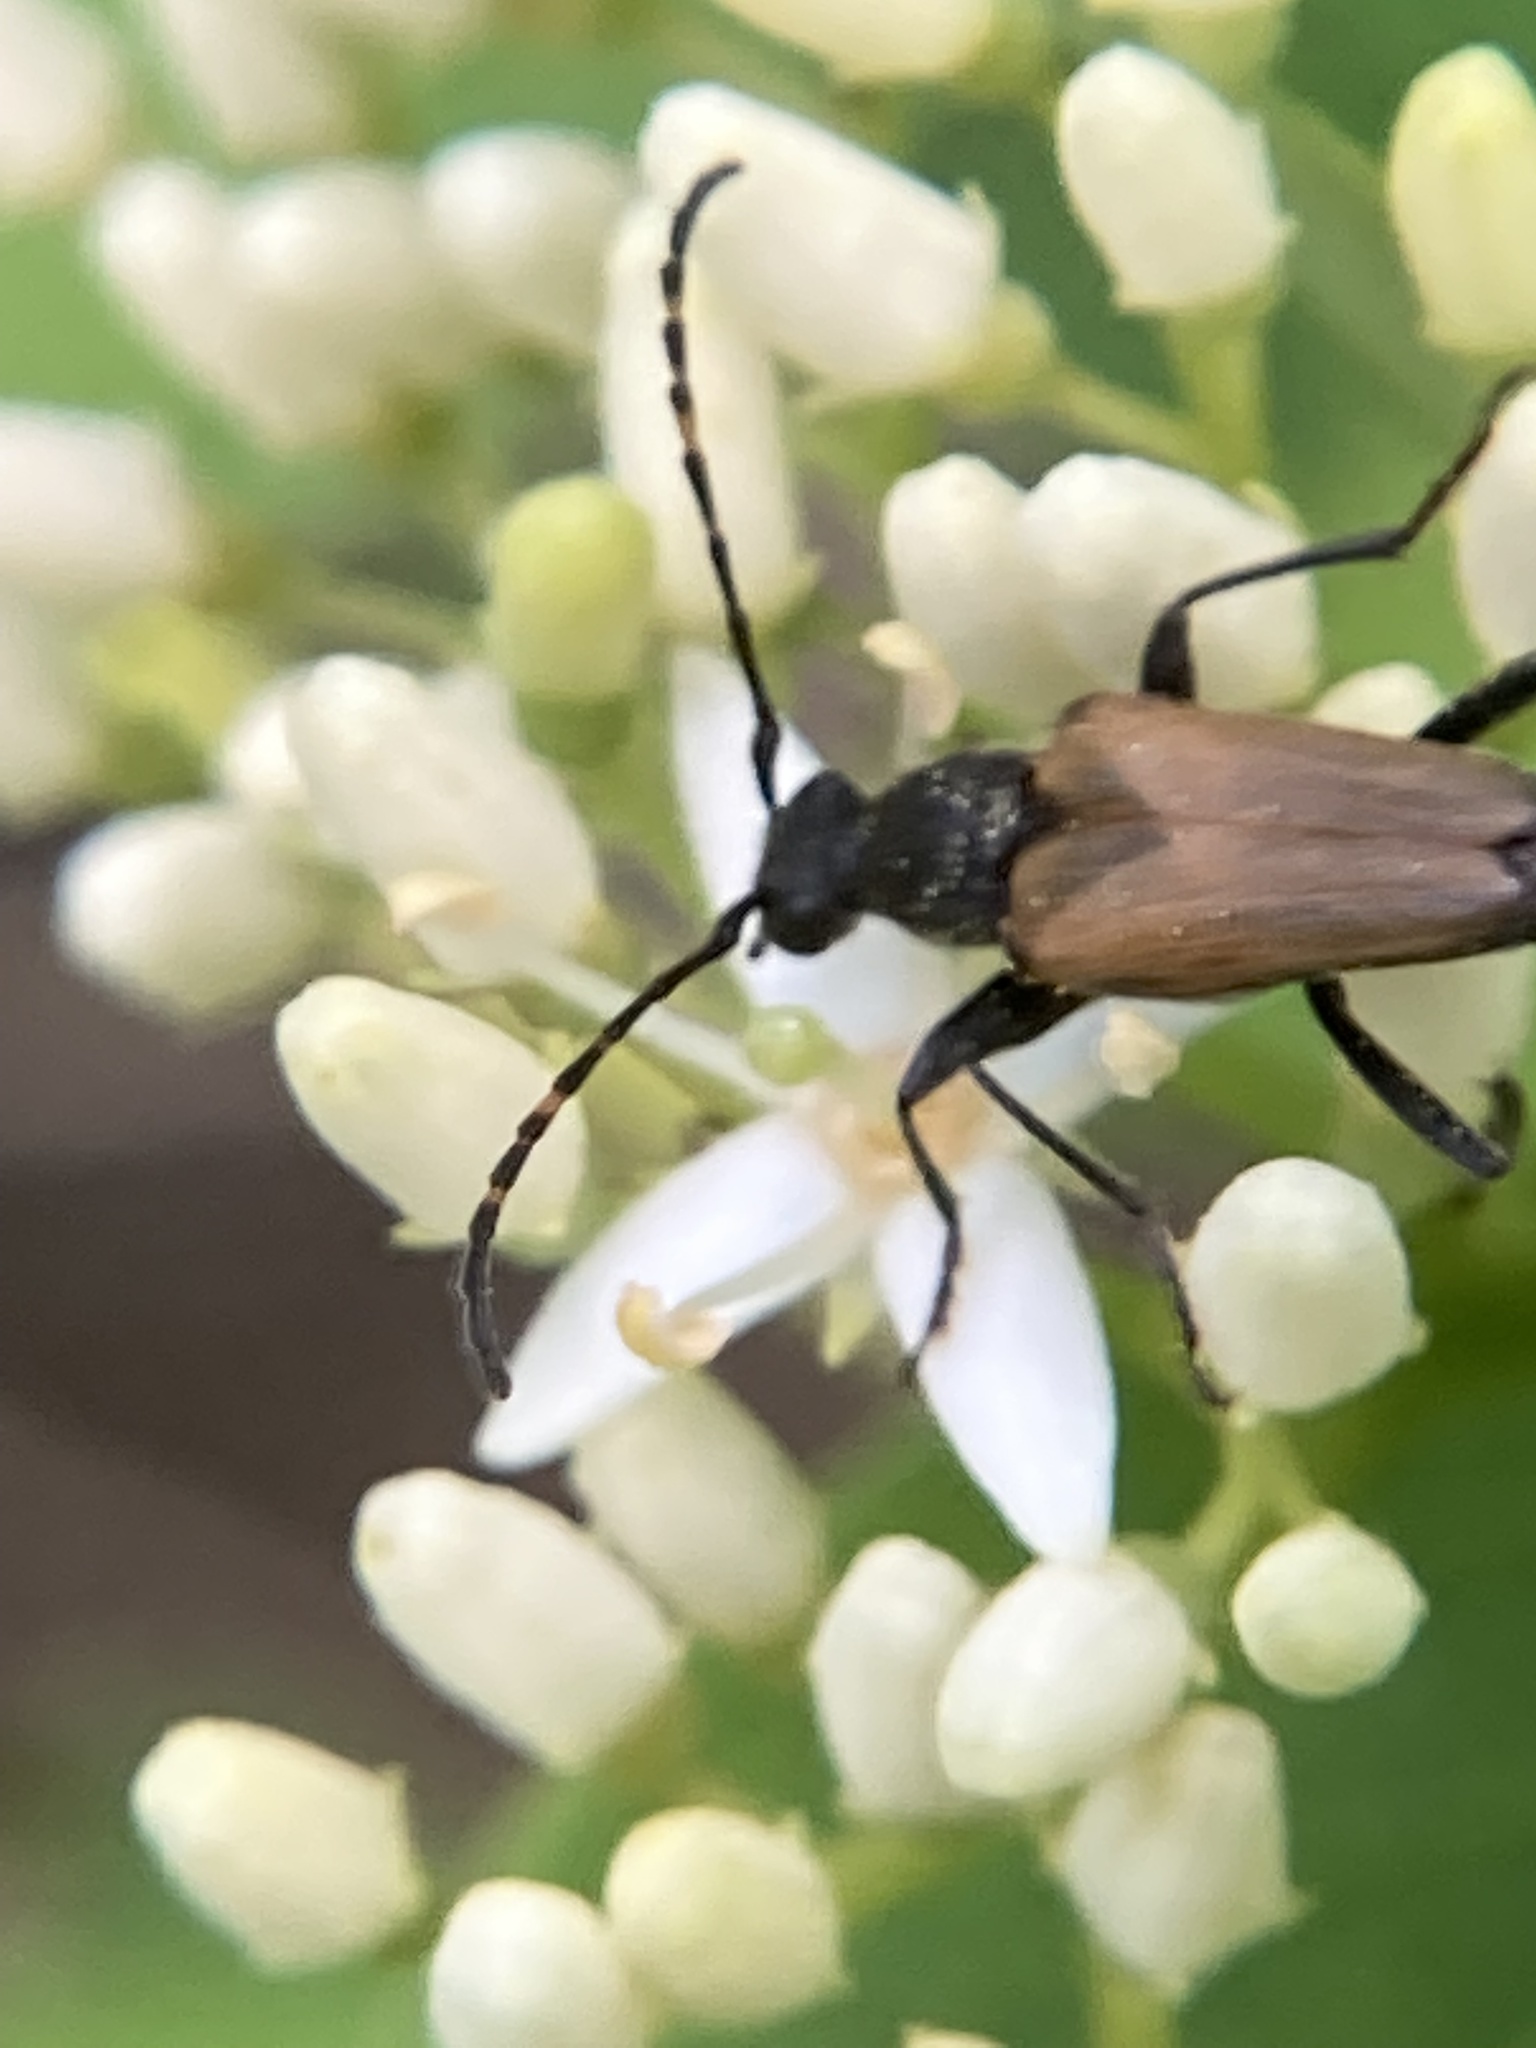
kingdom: Animalia
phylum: Arthropoda
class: Insecta
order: Coleoptera
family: Cerambycidae
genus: Brachyleptura
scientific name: Brachyleptura vagans
